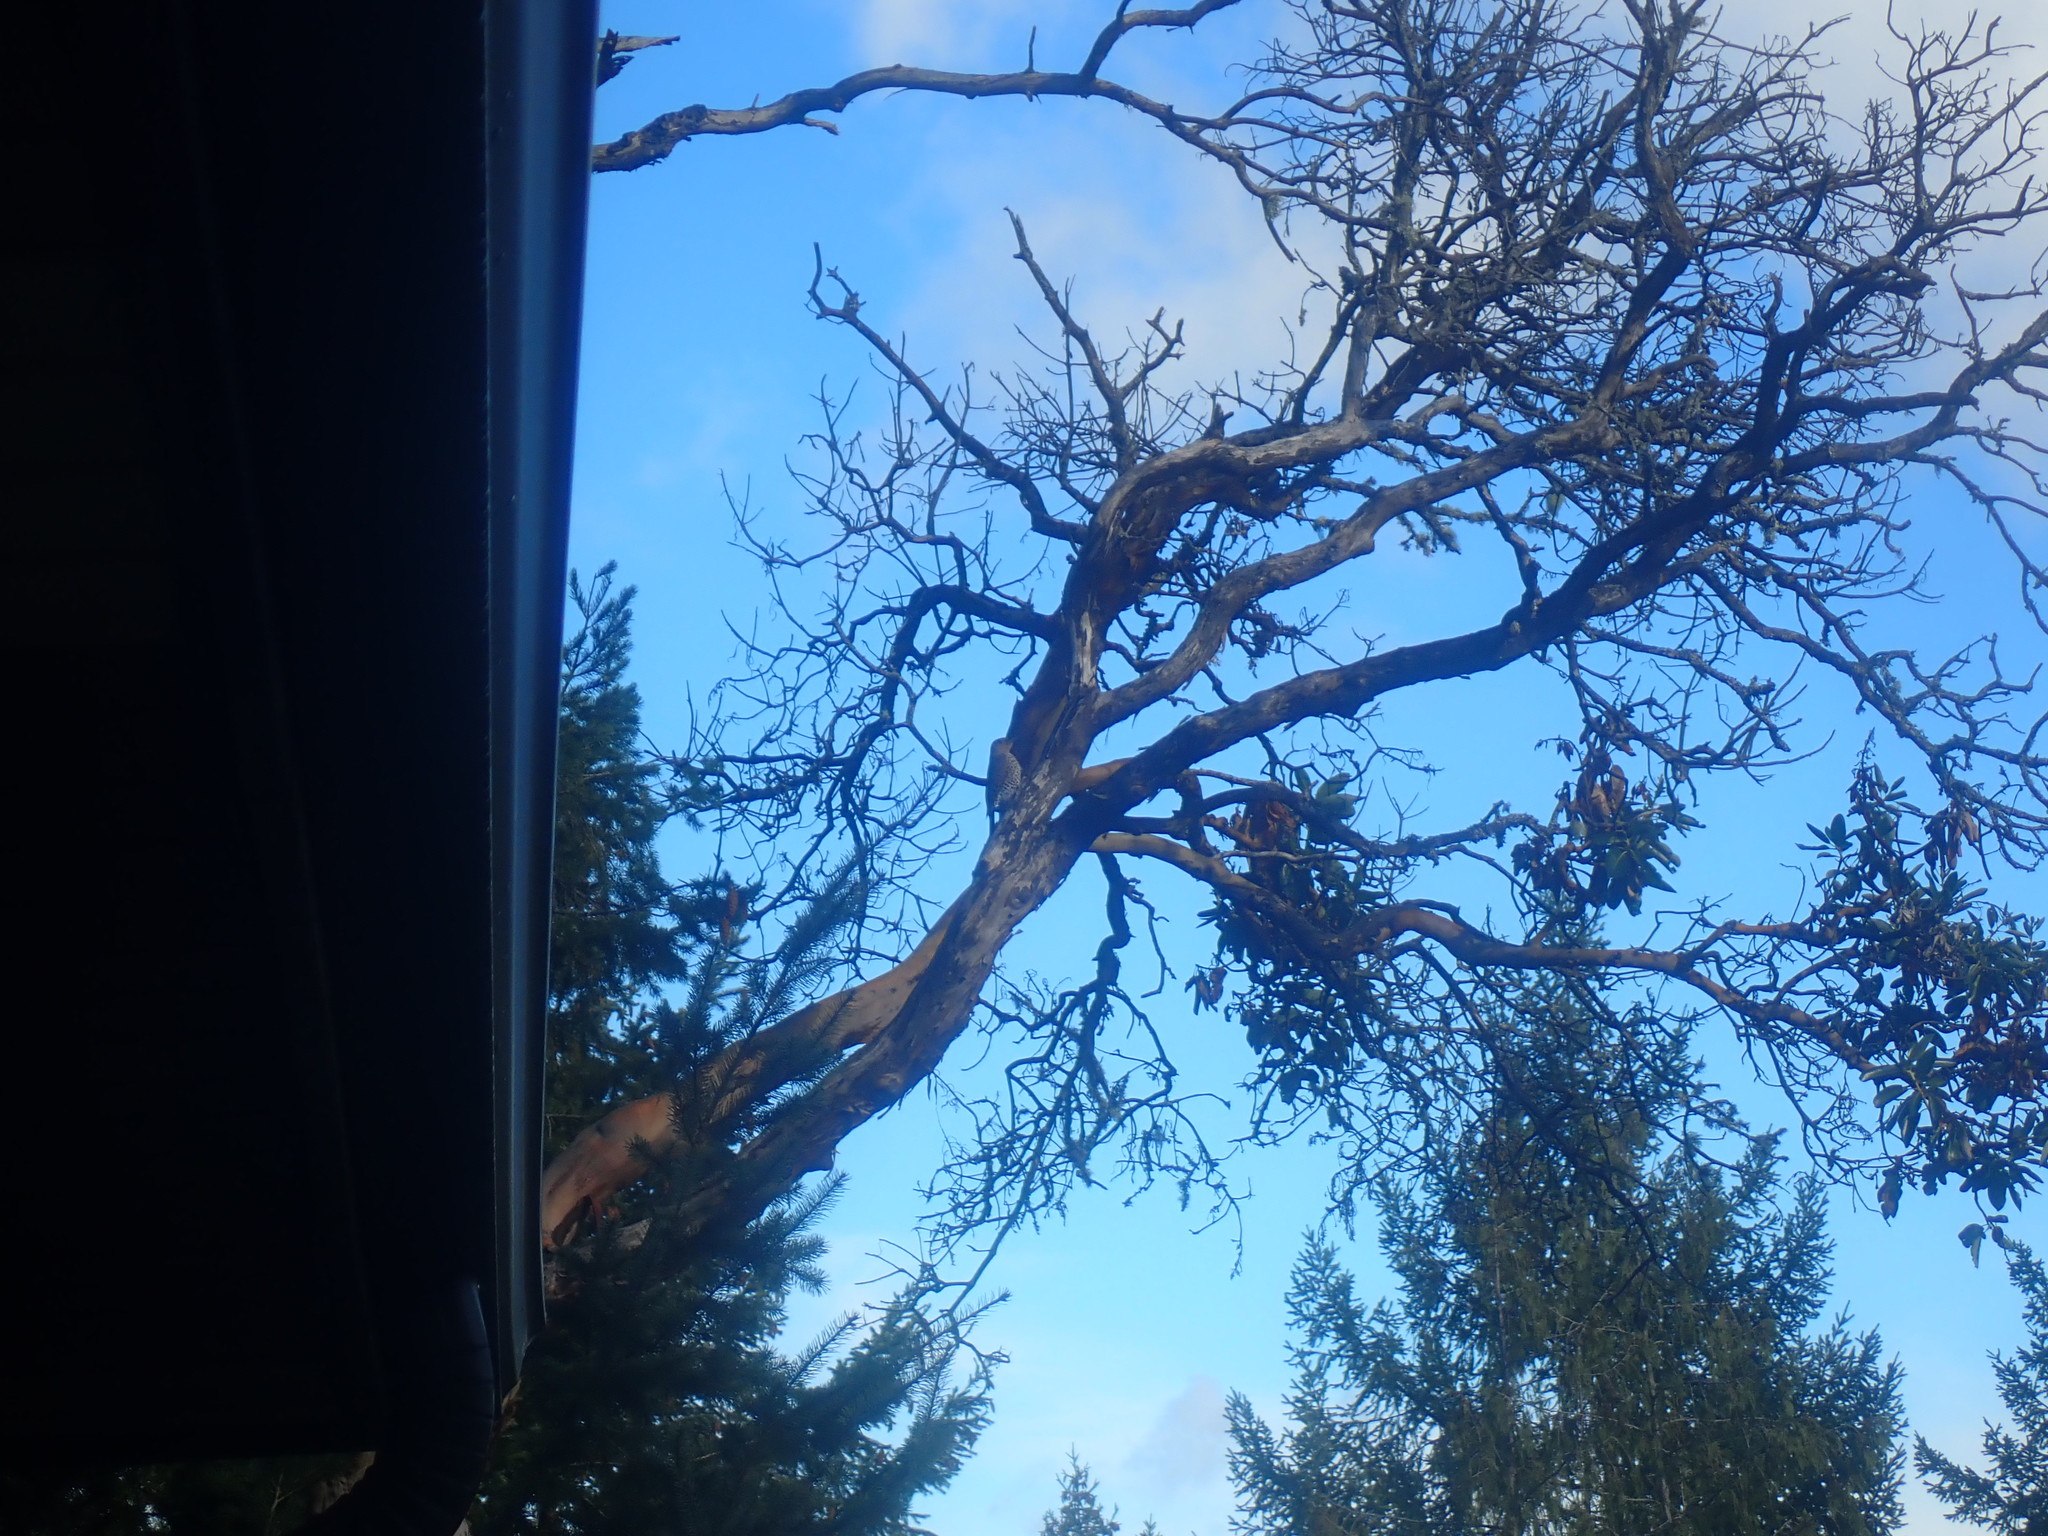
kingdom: Animalia
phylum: Chordata
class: Aves
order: Piciformes
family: Picidae
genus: Colaptes
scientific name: Colaptes auratus
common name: Northern flicker
